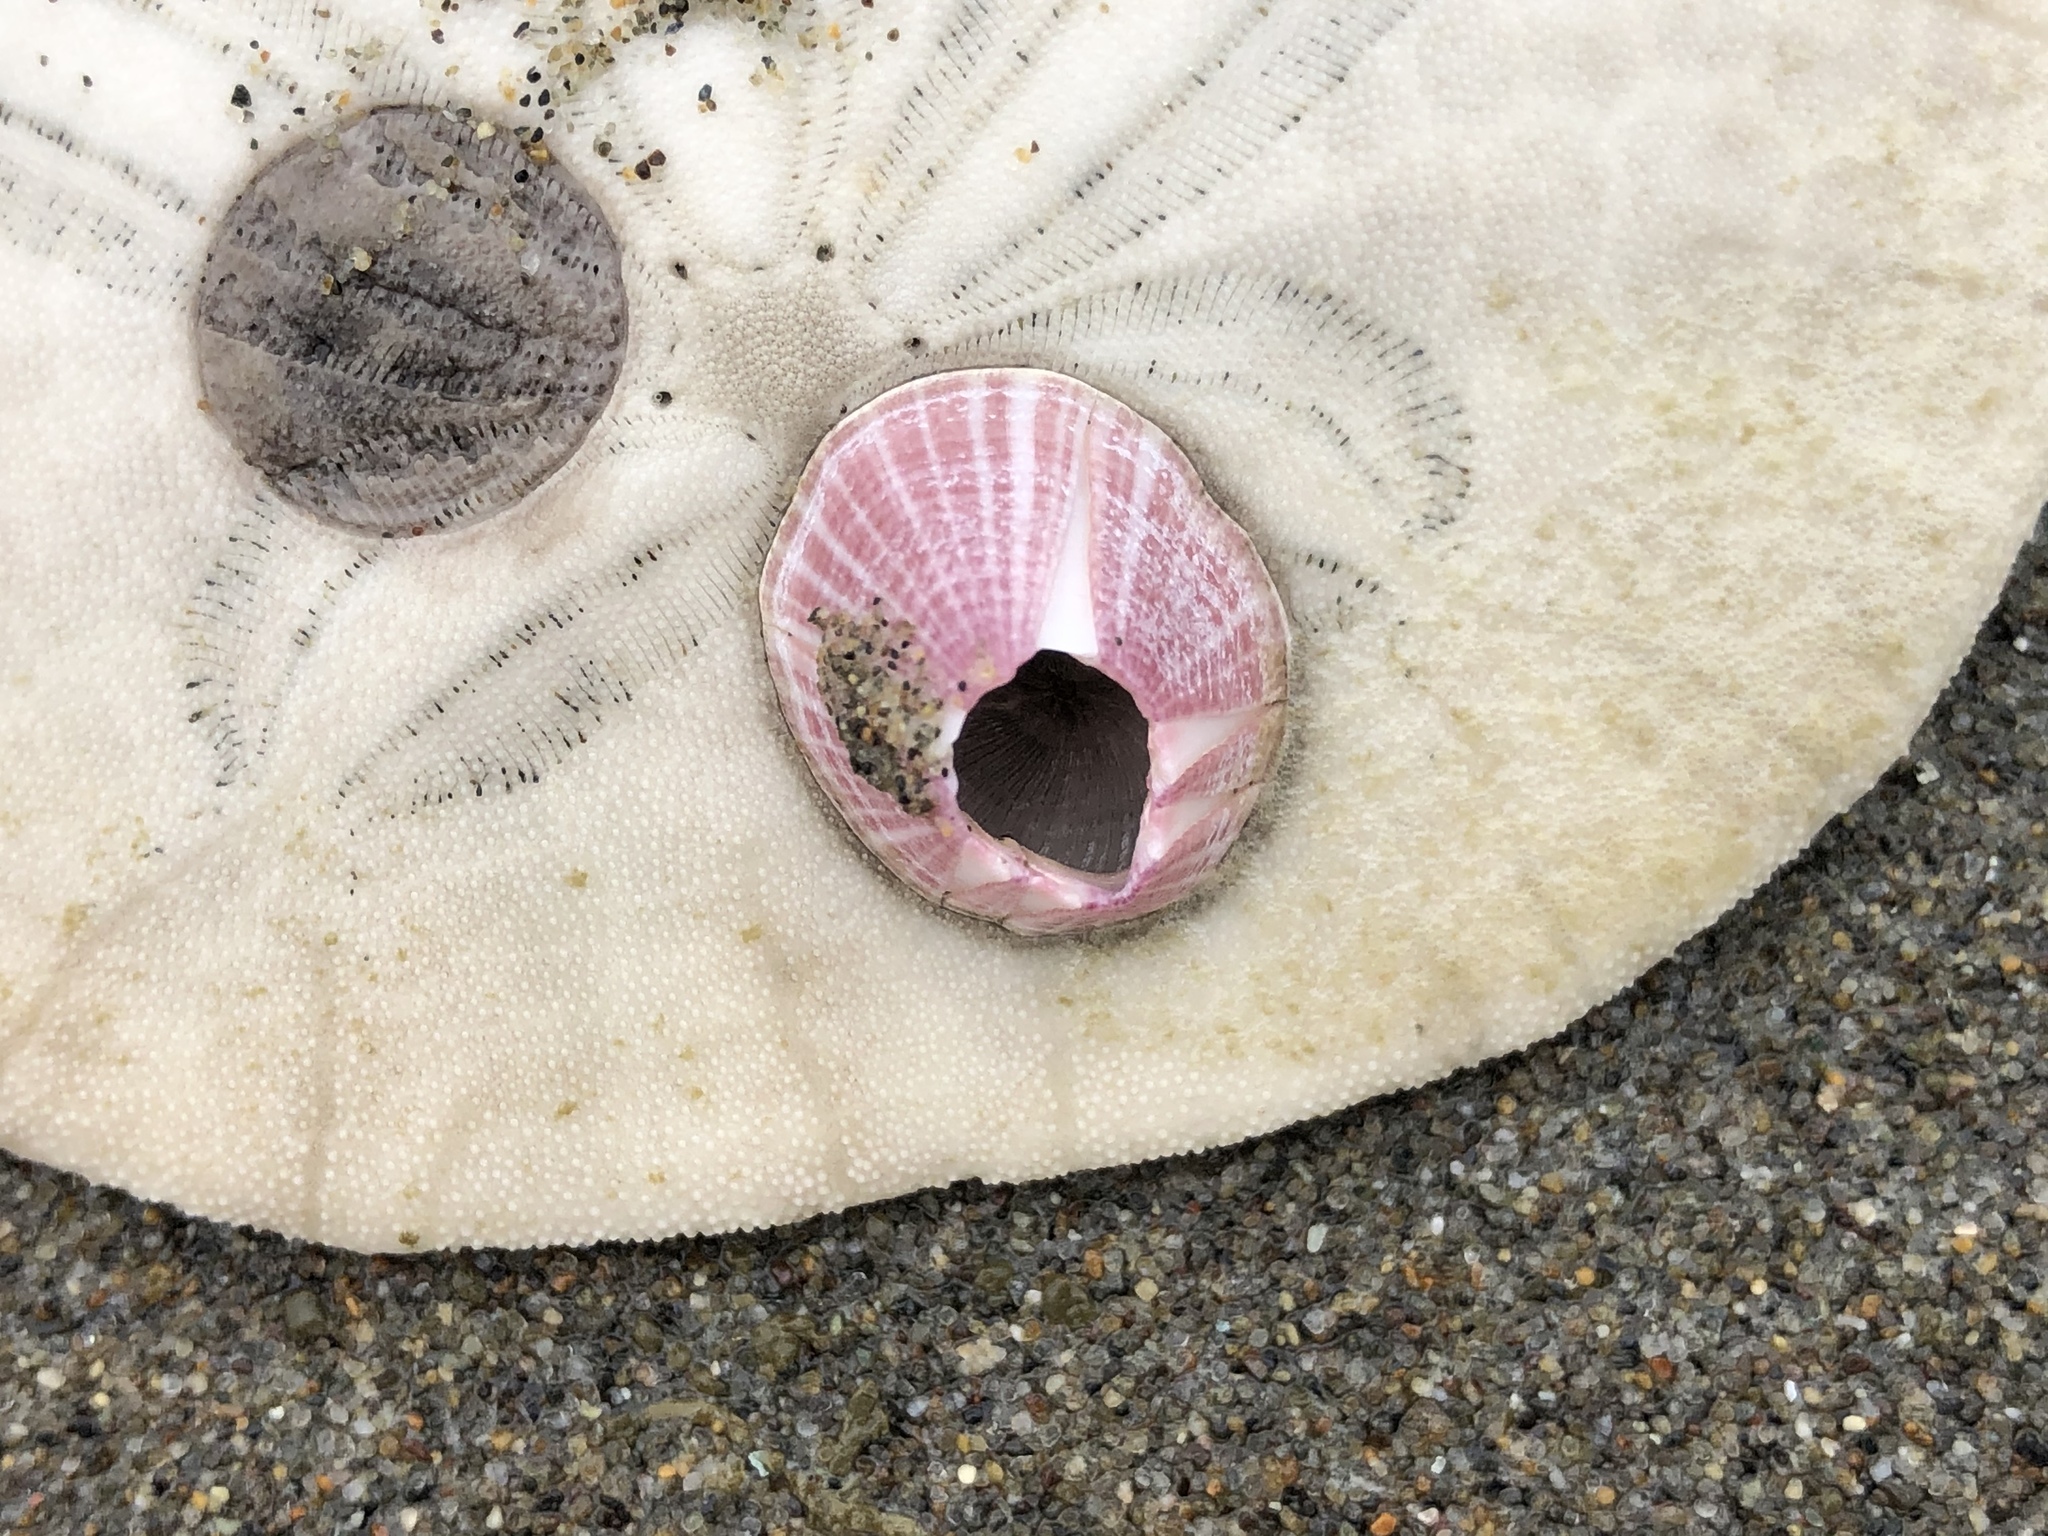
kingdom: Animalia
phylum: Arthropoda
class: Maxillopoda
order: Sessilia
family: Balanidae
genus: Paraconcavus
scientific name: Paraconcavus pacificus
